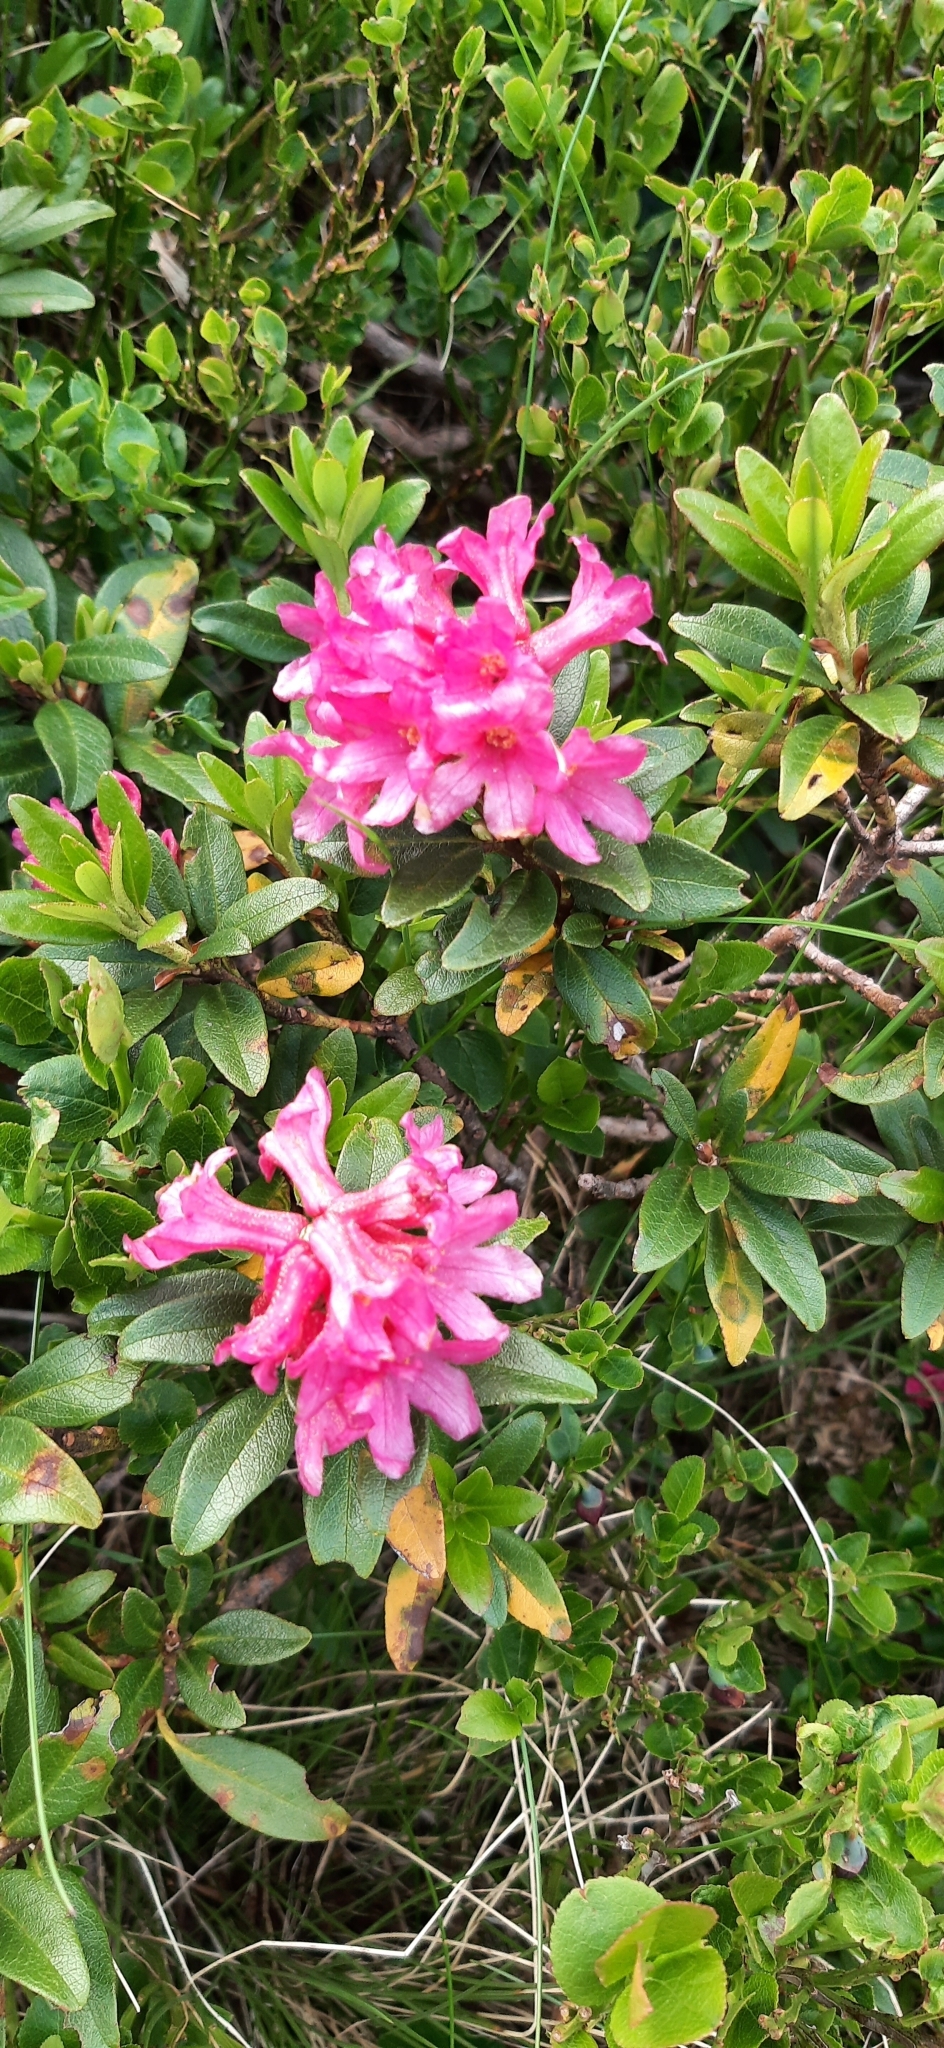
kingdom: Plantae
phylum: Tracheophyta
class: Magnoliopsida
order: Ericales
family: Ericaceae
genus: Rhododendron
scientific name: Rhododendron ferrugineum
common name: Alpenrose
